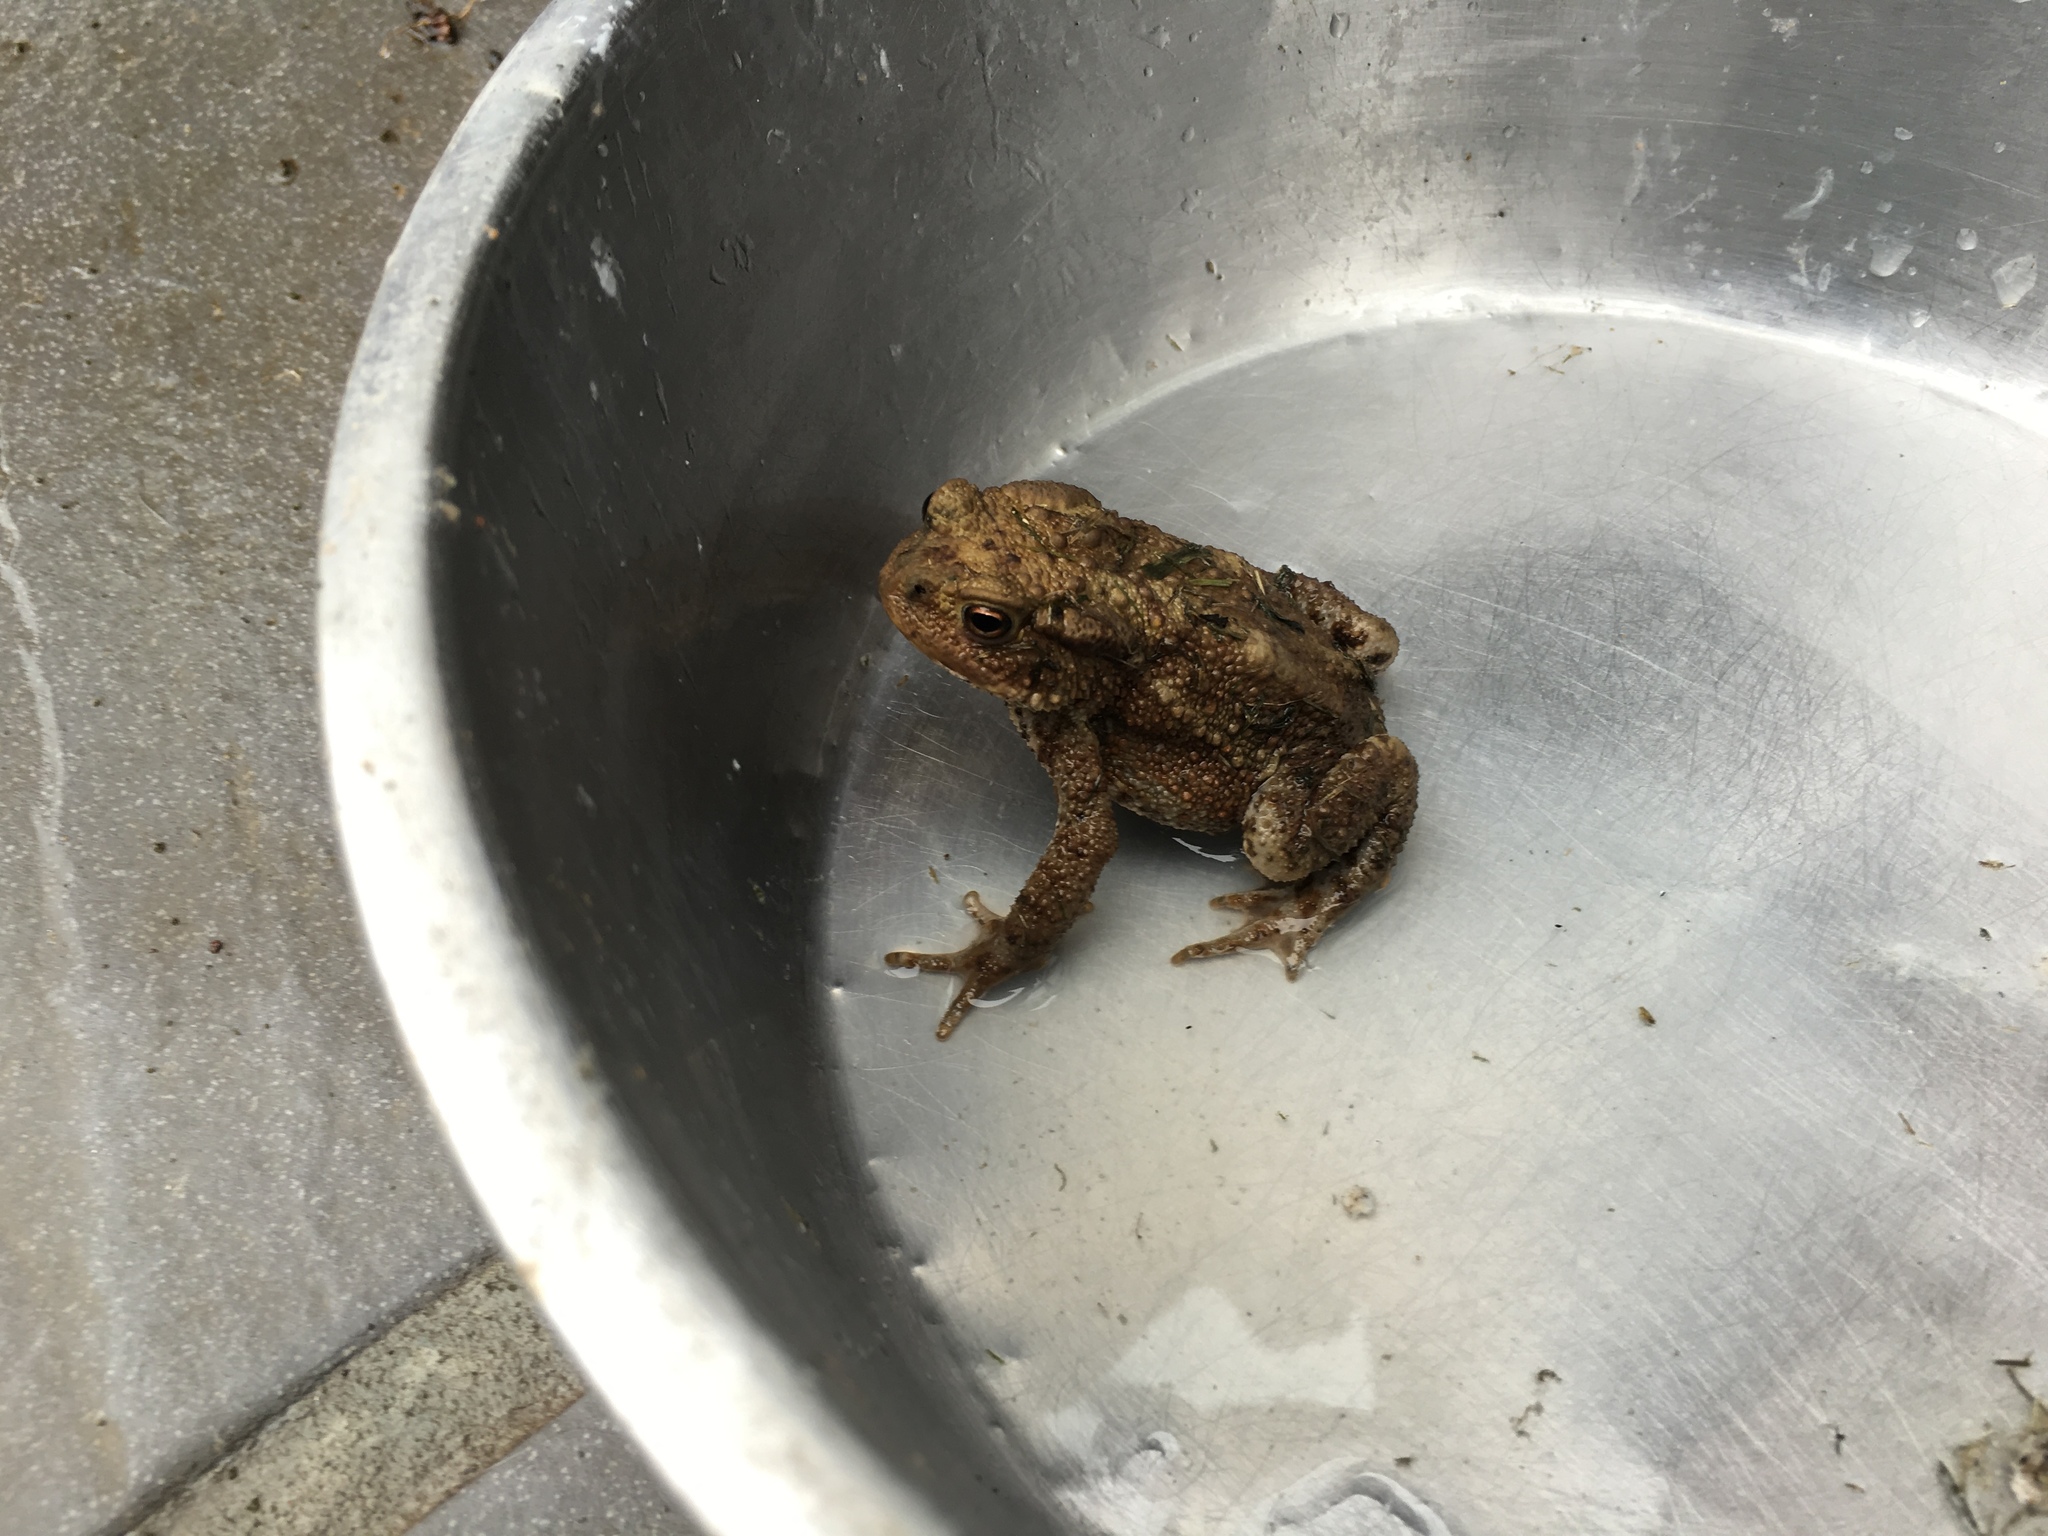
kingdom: Animalia
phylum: Chordata
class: Amphibia
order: Anura
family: Bufonidae
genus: Bufo
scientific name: Bufo bufo
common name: Common toad
